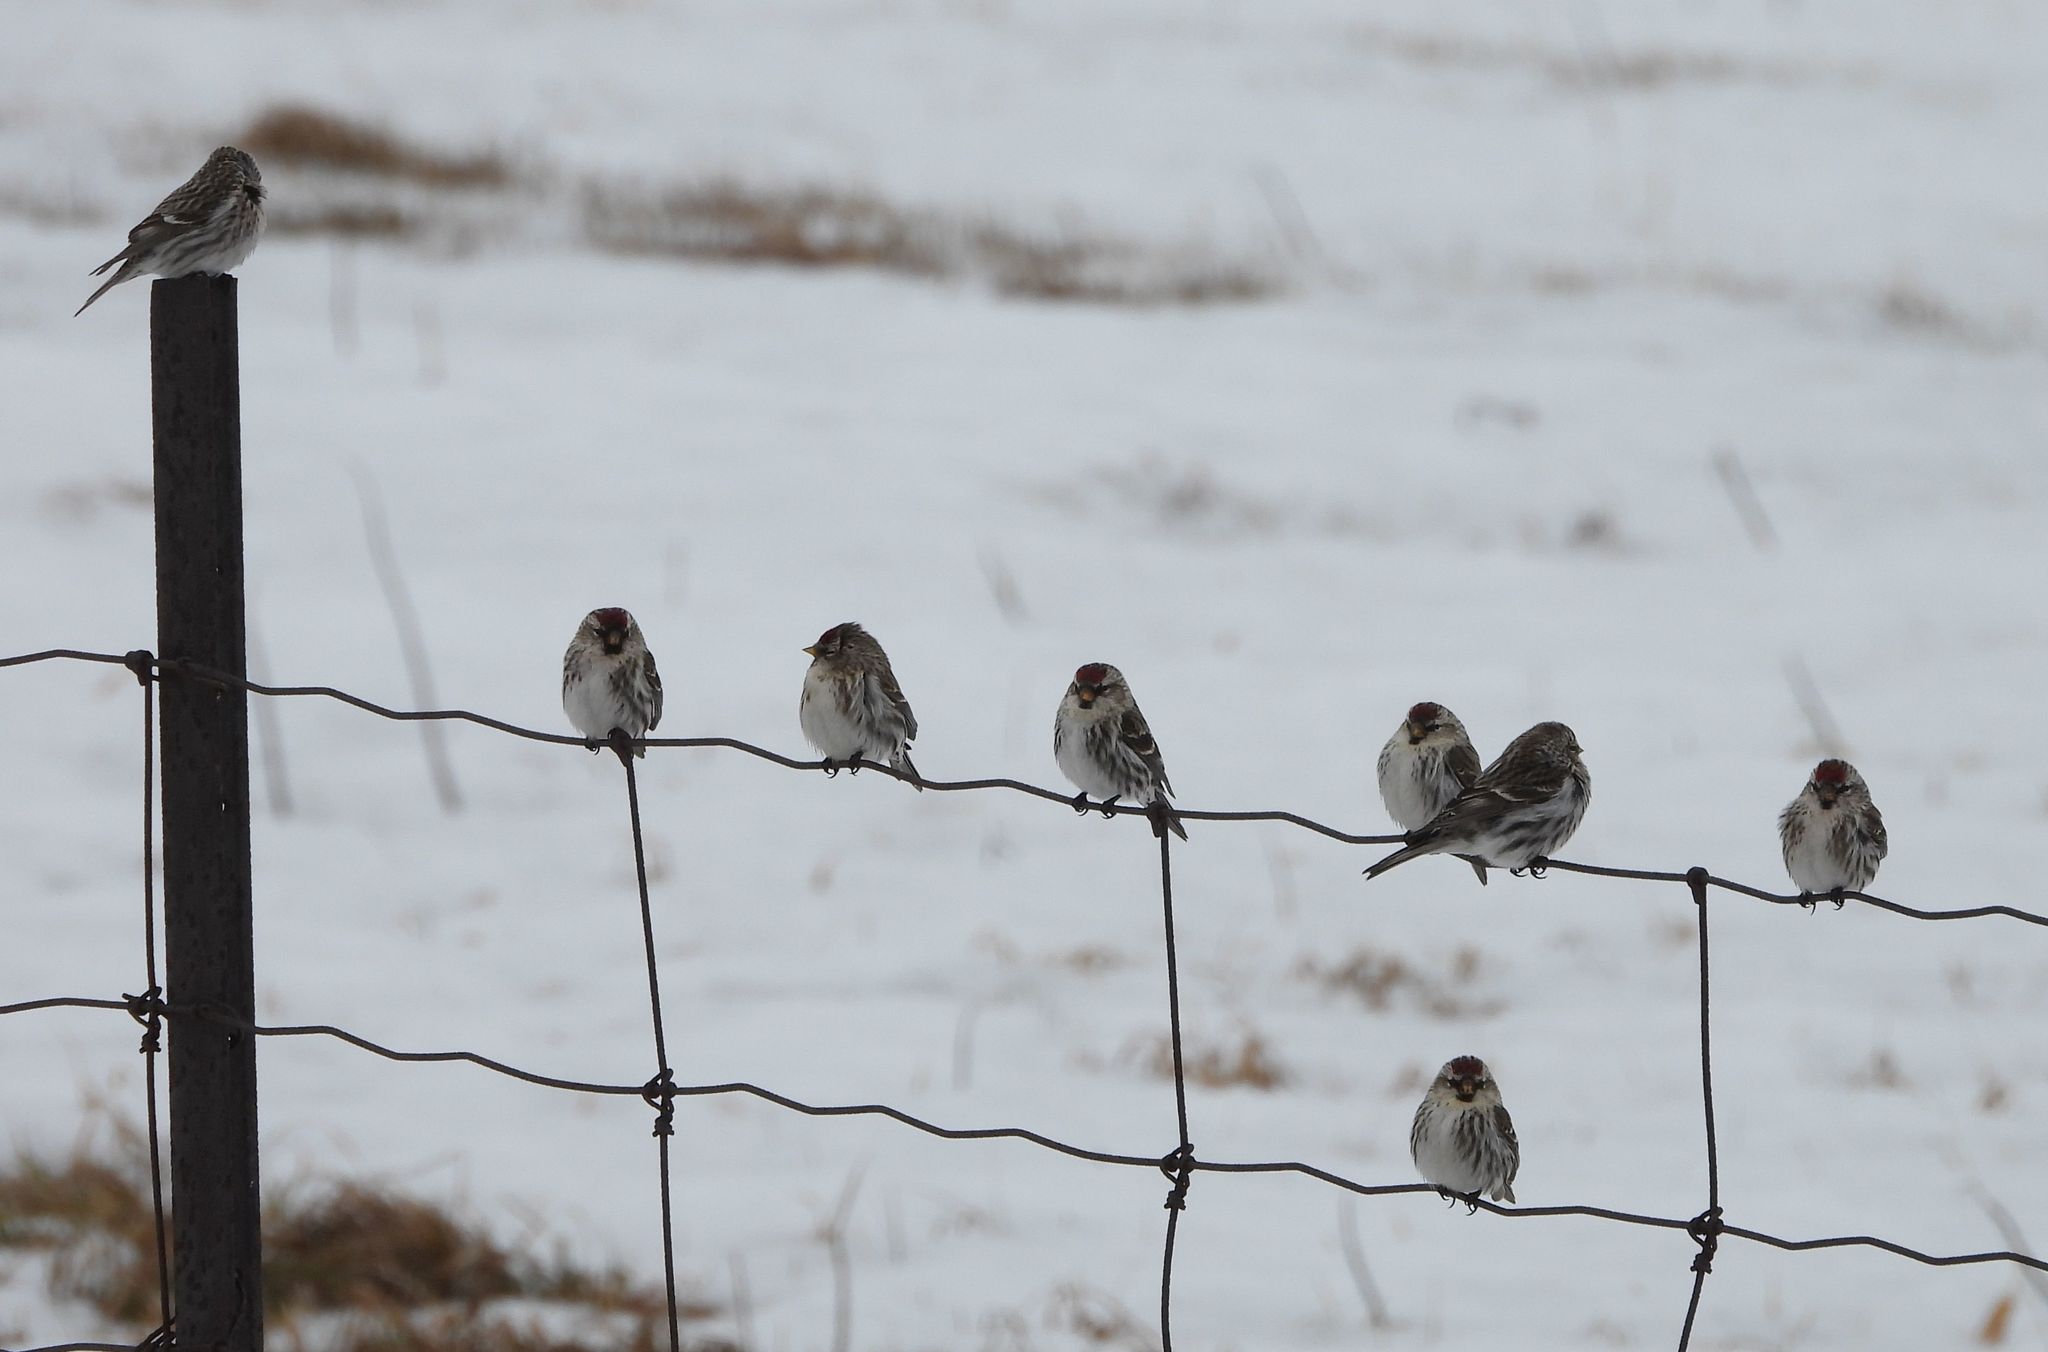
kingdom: Animalia
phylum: Chordata
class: Aves
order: Passeriformes
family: Fringillidae
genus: Acanthis
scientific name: Acanthis flammea
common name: Common redpoll
